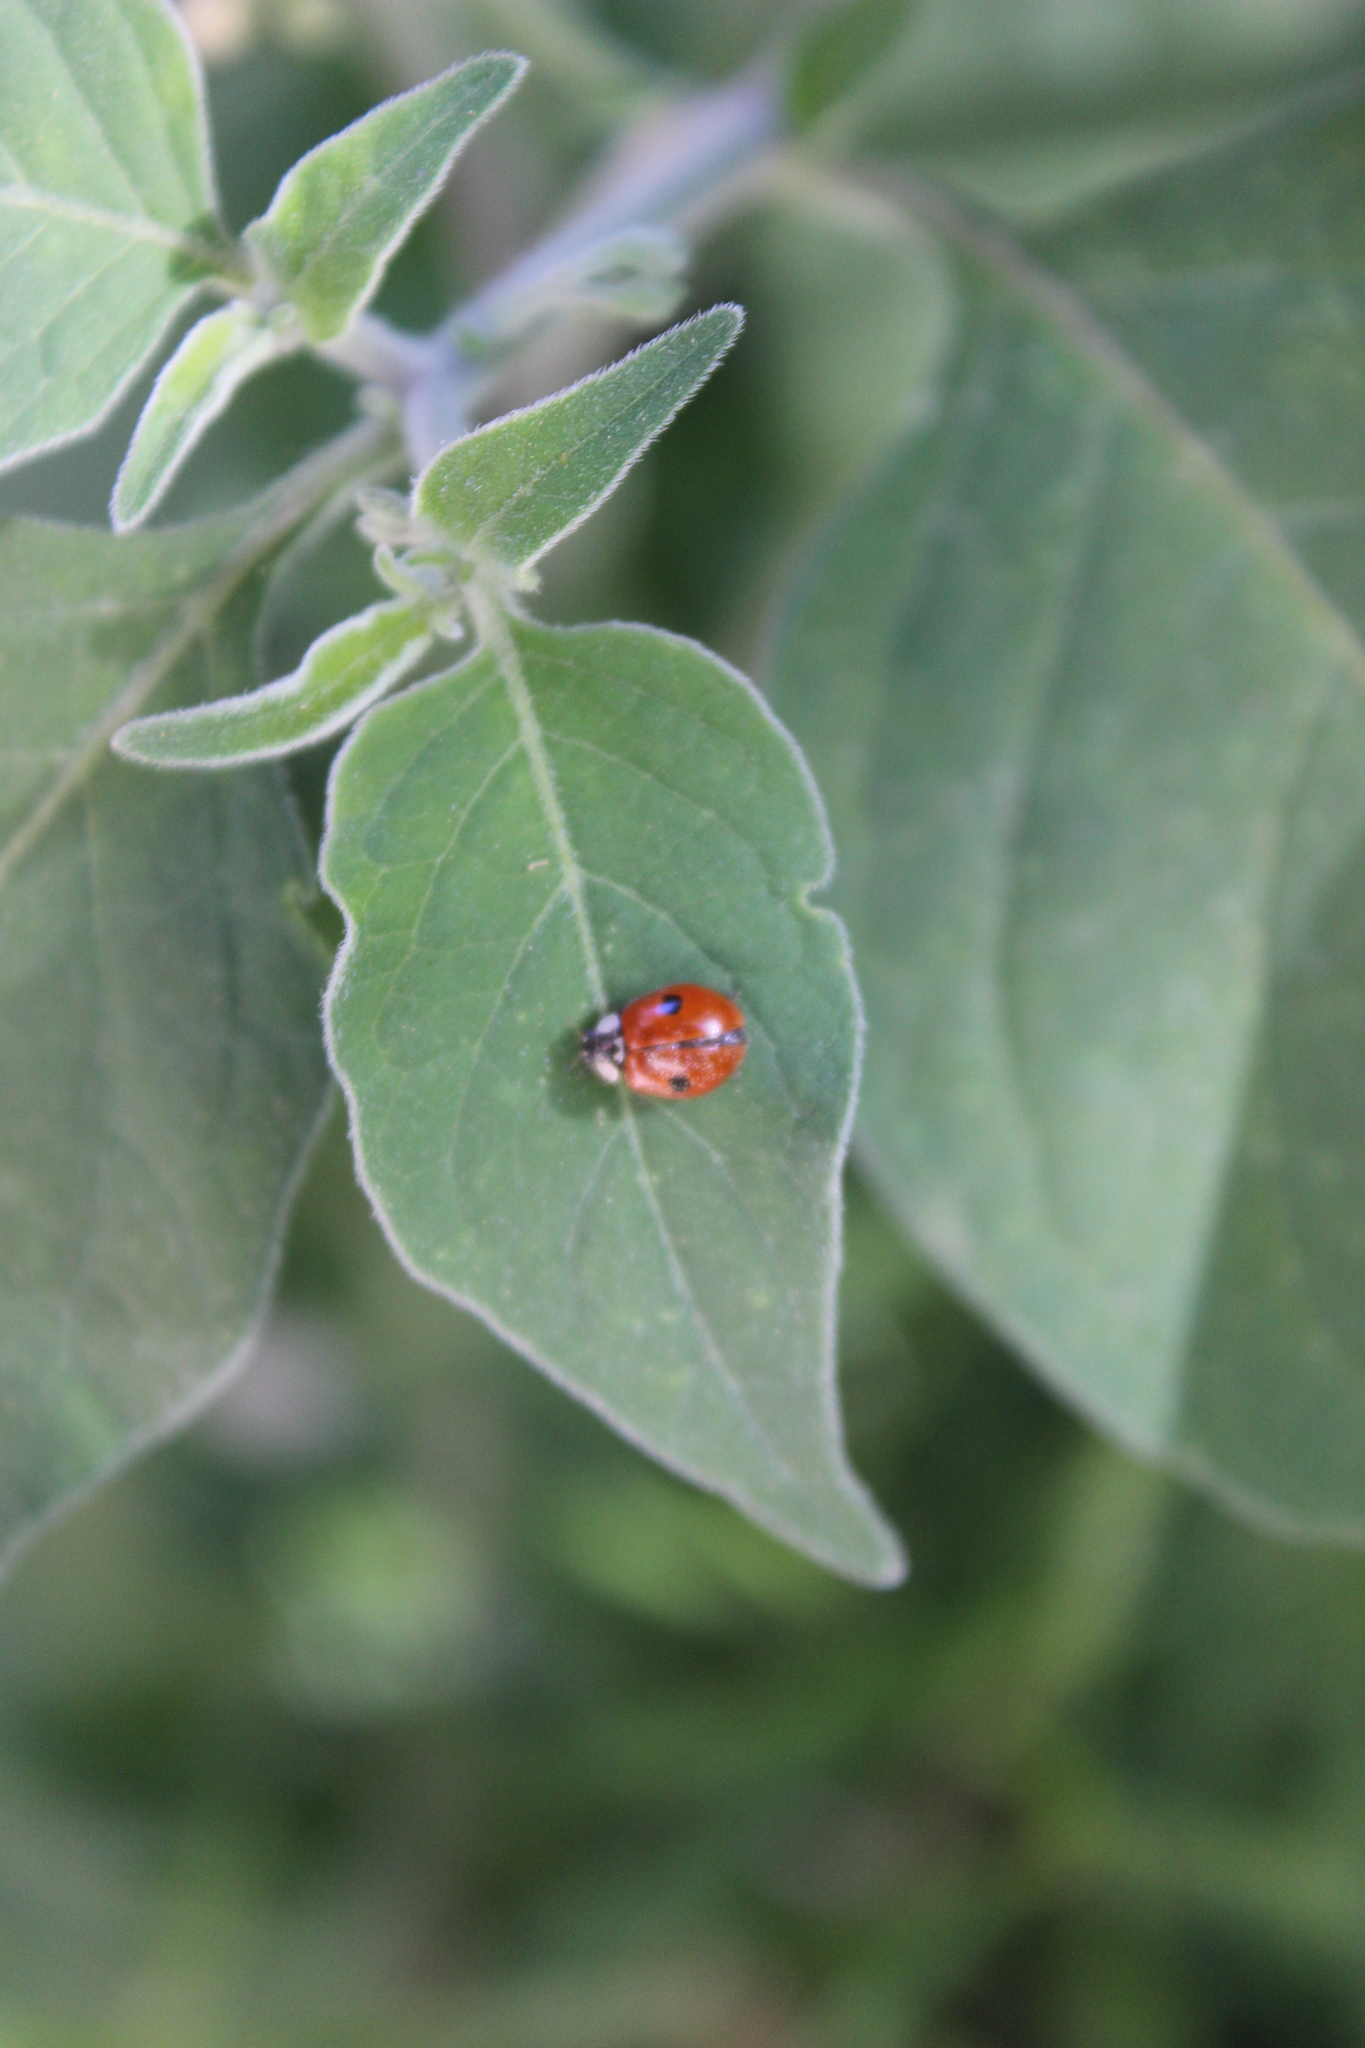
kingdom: Animalia
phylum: Arthropoda
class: Insecta
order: Coleoptera
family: Coccinellidae
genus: Adalia
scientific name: Adalia bipunctata
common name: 2-spot ladybird
